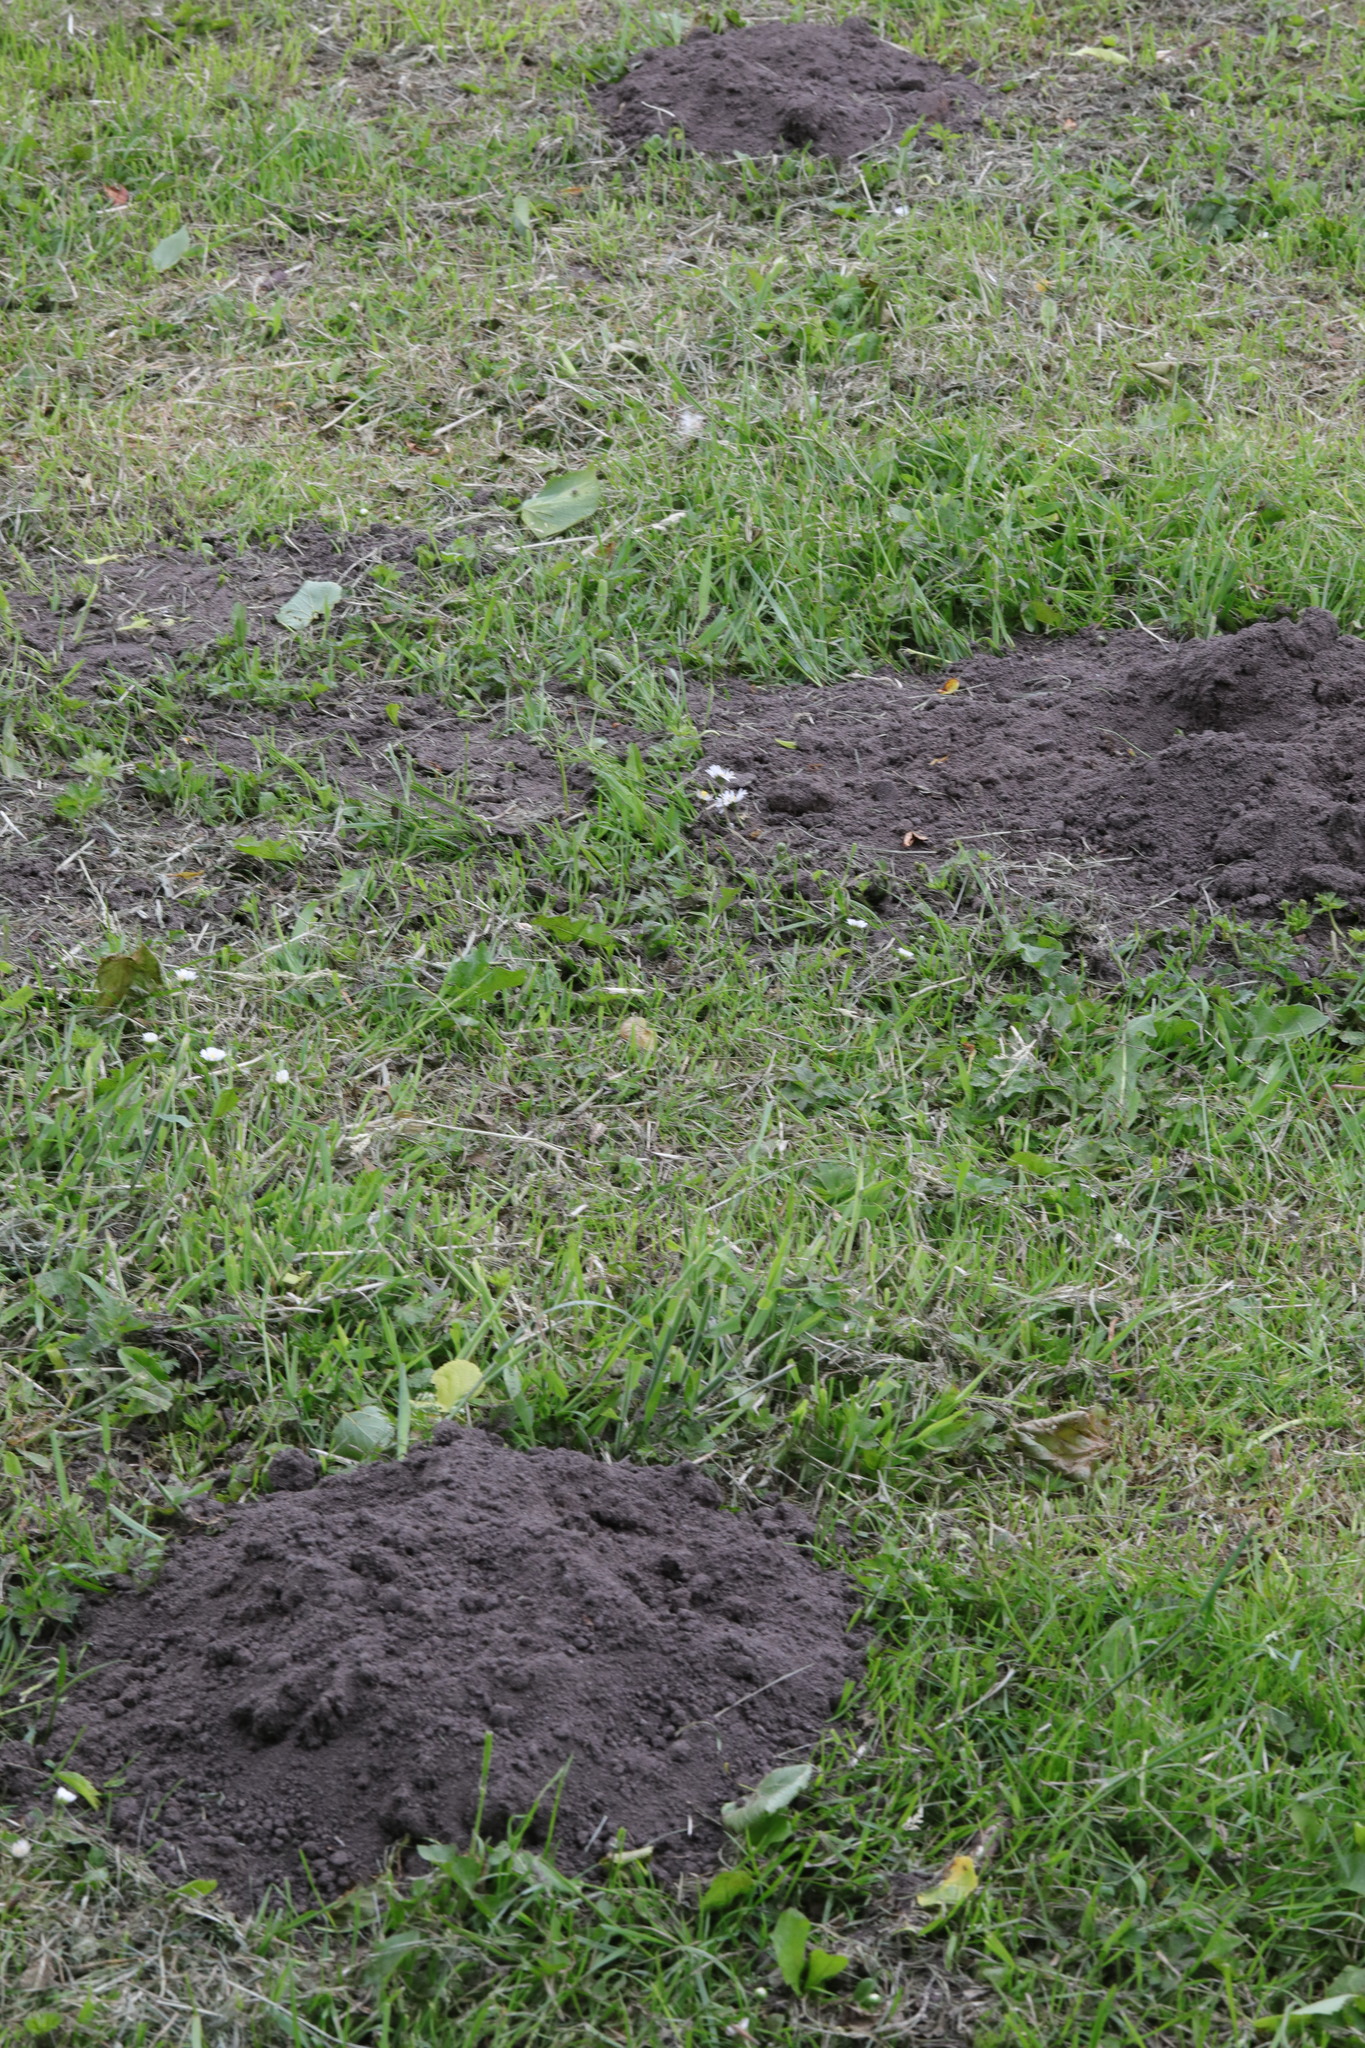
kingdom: Animalia
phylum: Chordata
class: Mammalia
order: Soricomorpha
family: Talpidae
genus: Talpa
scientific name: Talpa europaea
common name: European mole
